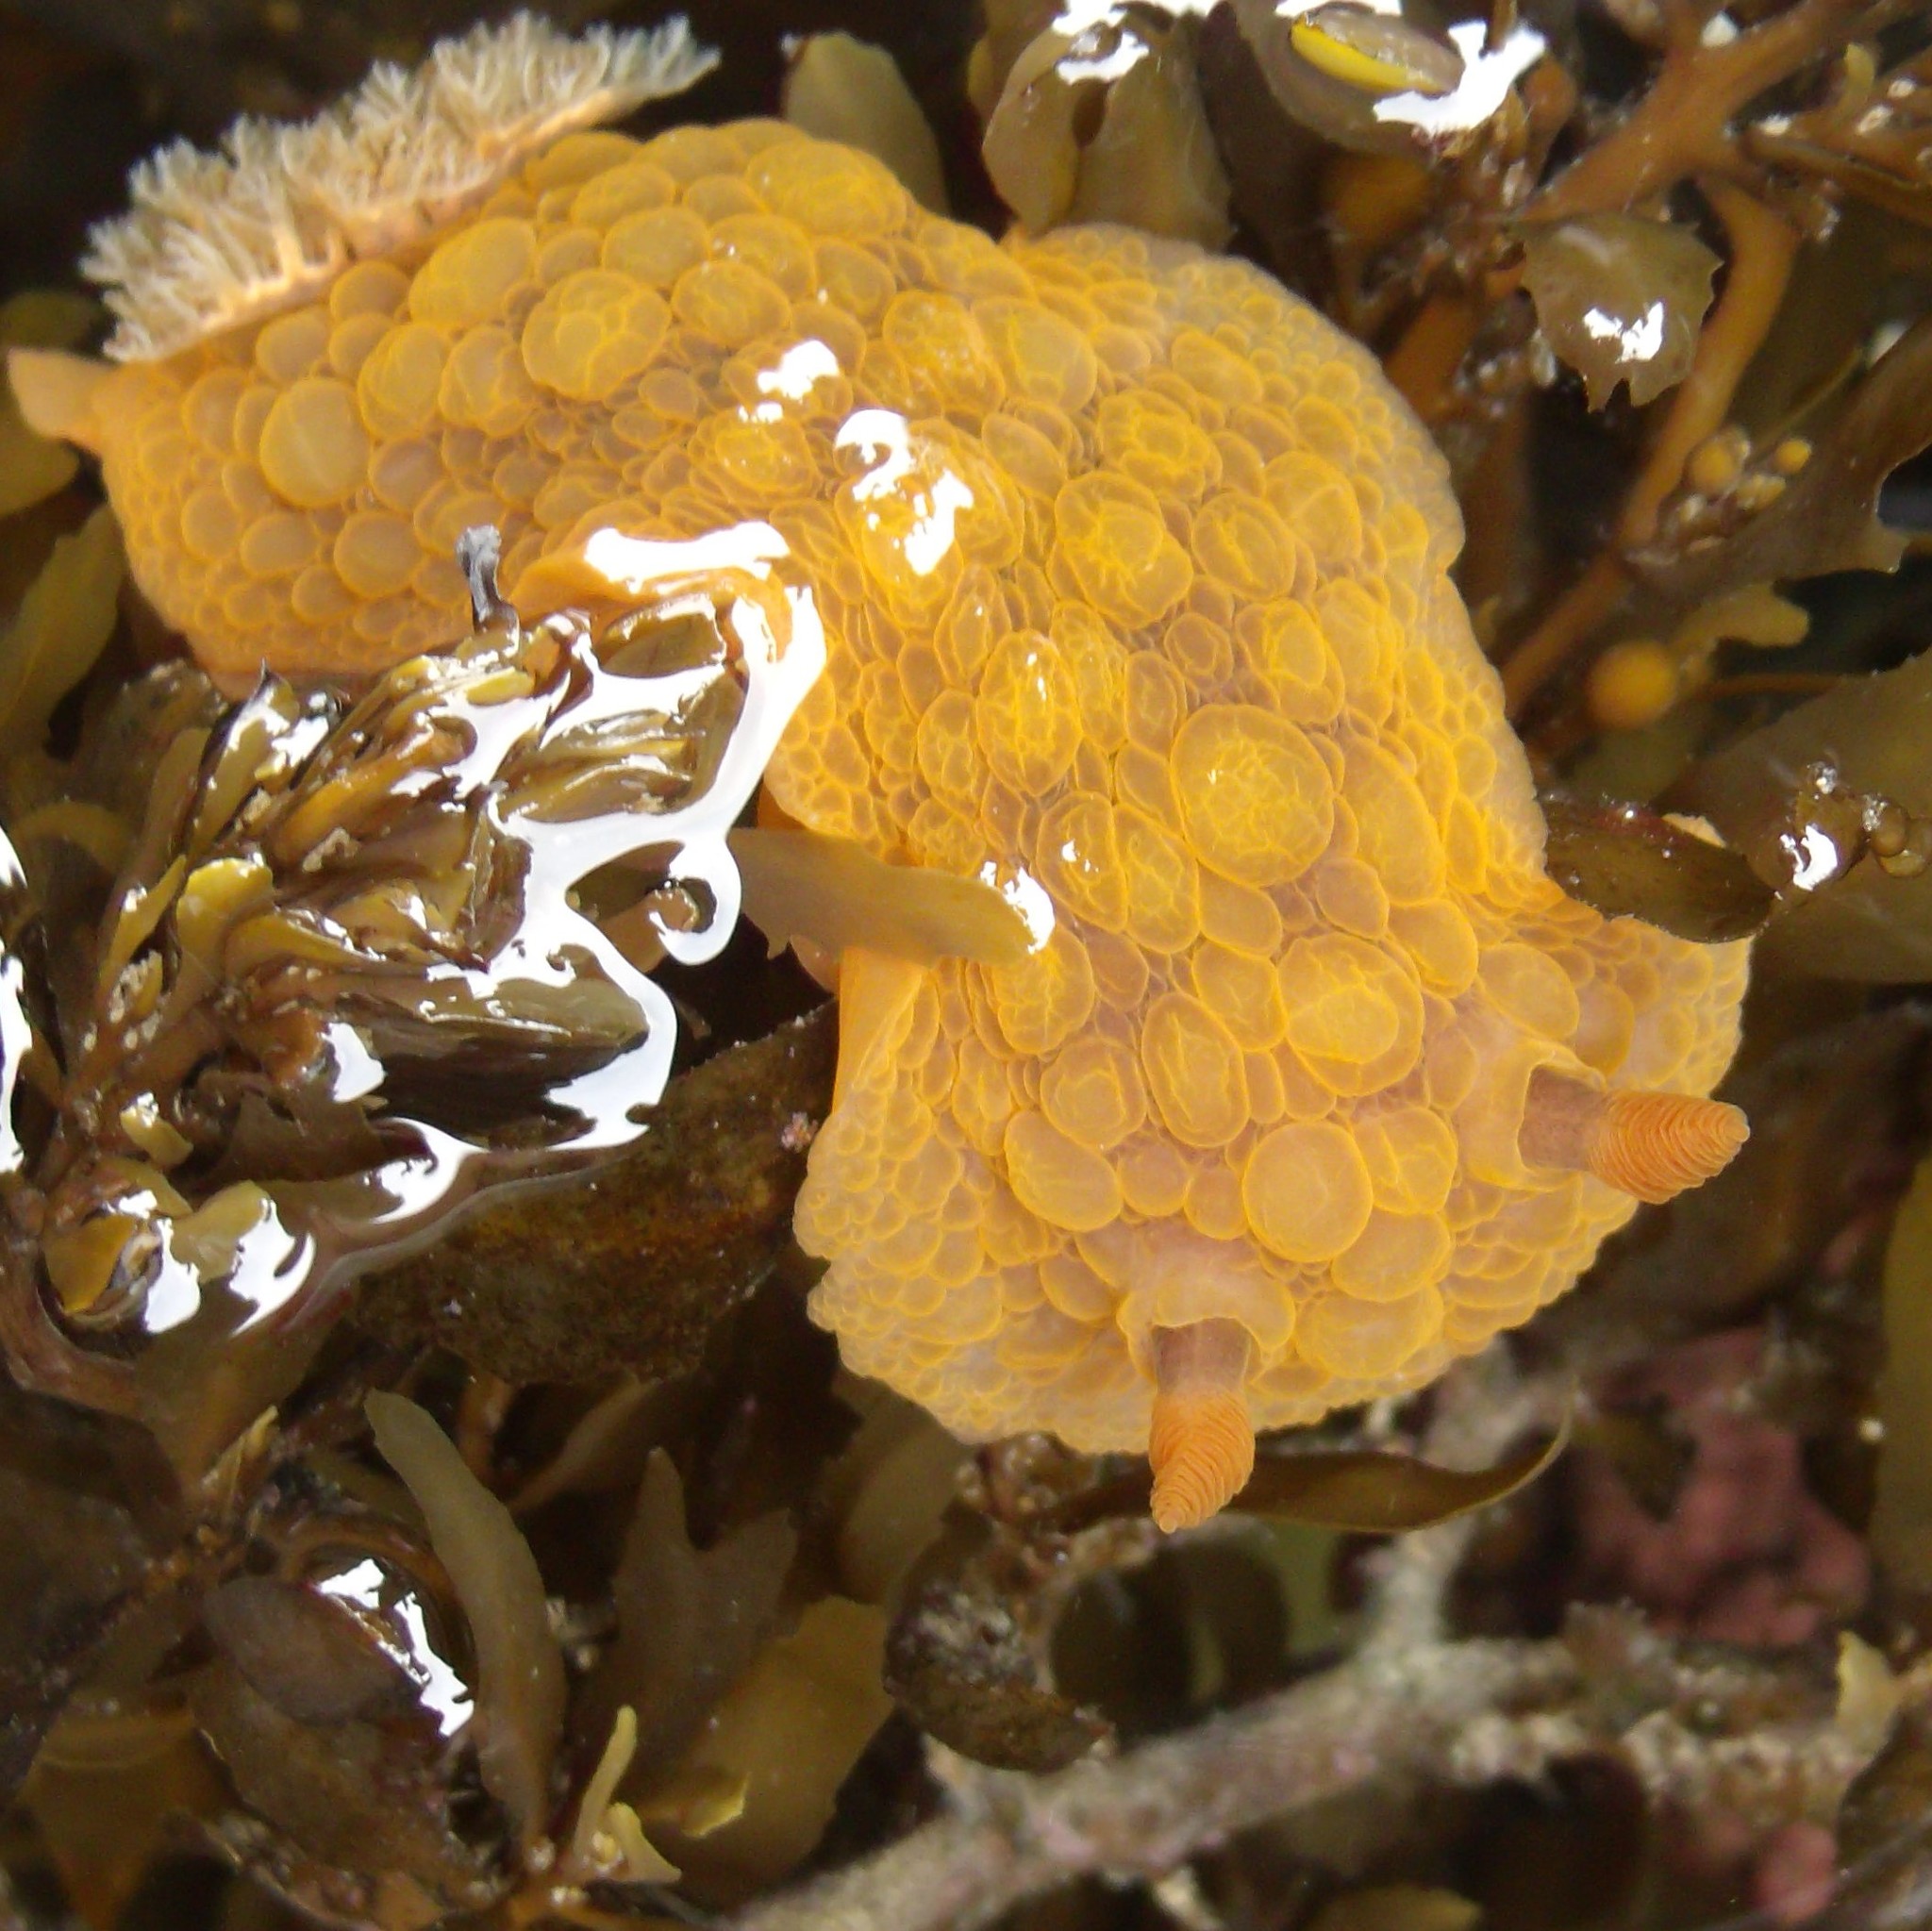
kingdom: Animalia
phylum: Mollusca
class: Gastropoda
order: Nudibranchia
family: Dorididae
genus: Doris
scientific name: Doris wellingtonensis
